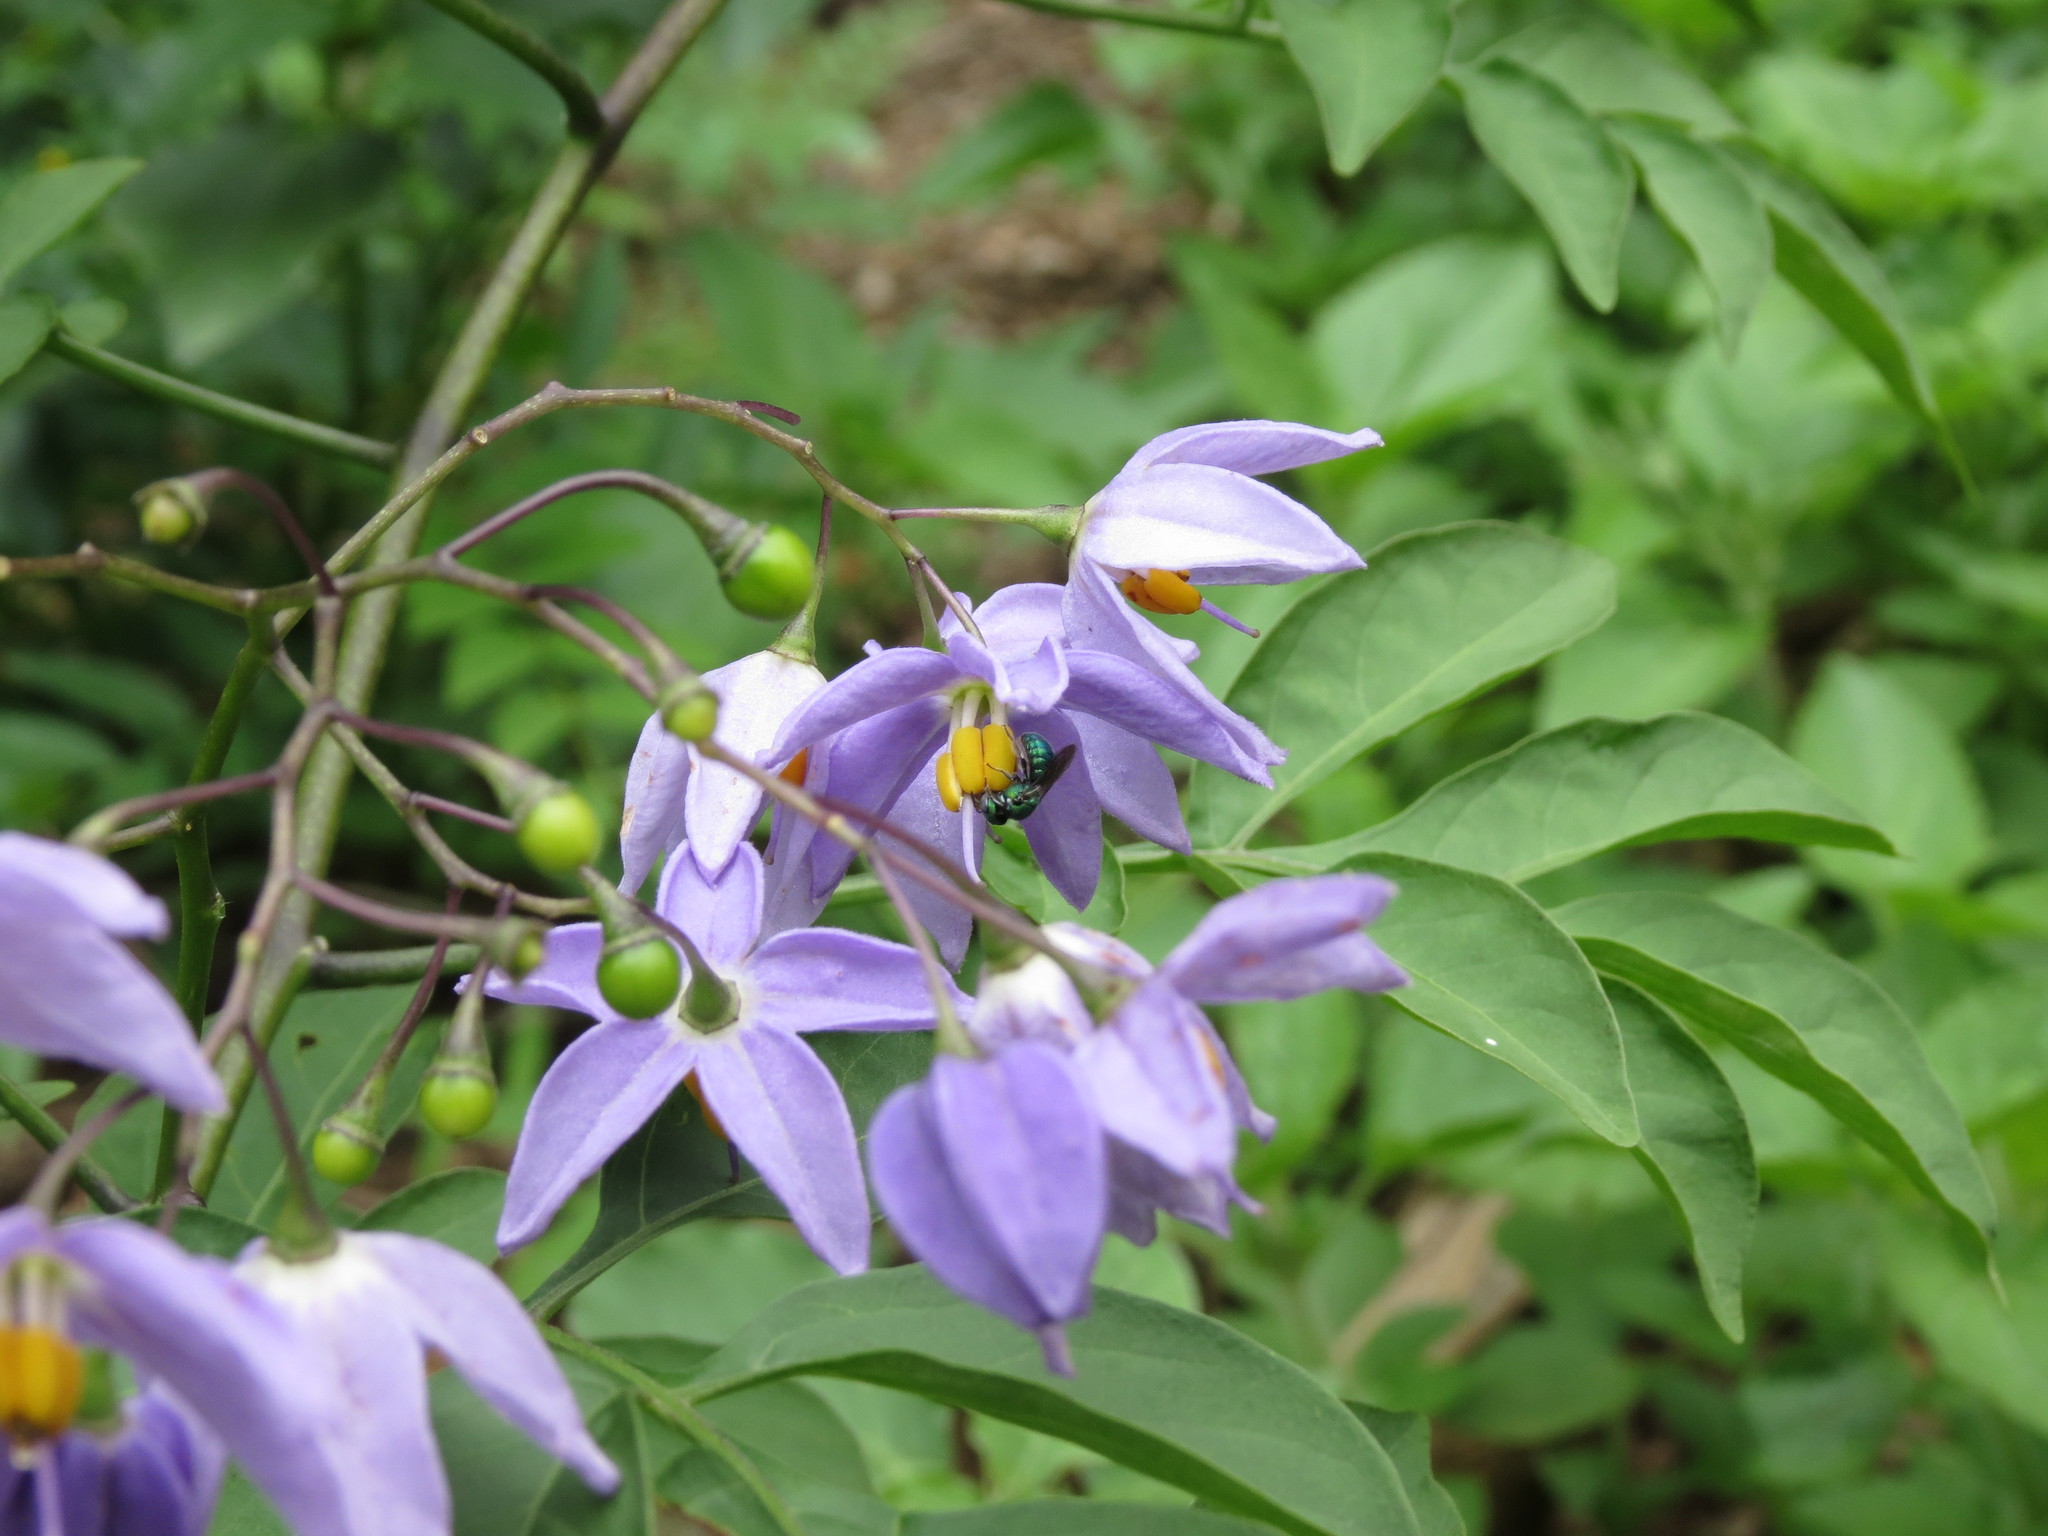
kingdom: Plantae
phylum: Tracheophyta
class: Magnoliopsida
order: Solanales
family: Solanaceae
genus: Solanum
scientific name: Solanum seaforthianum
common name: Brazilian nightshade
